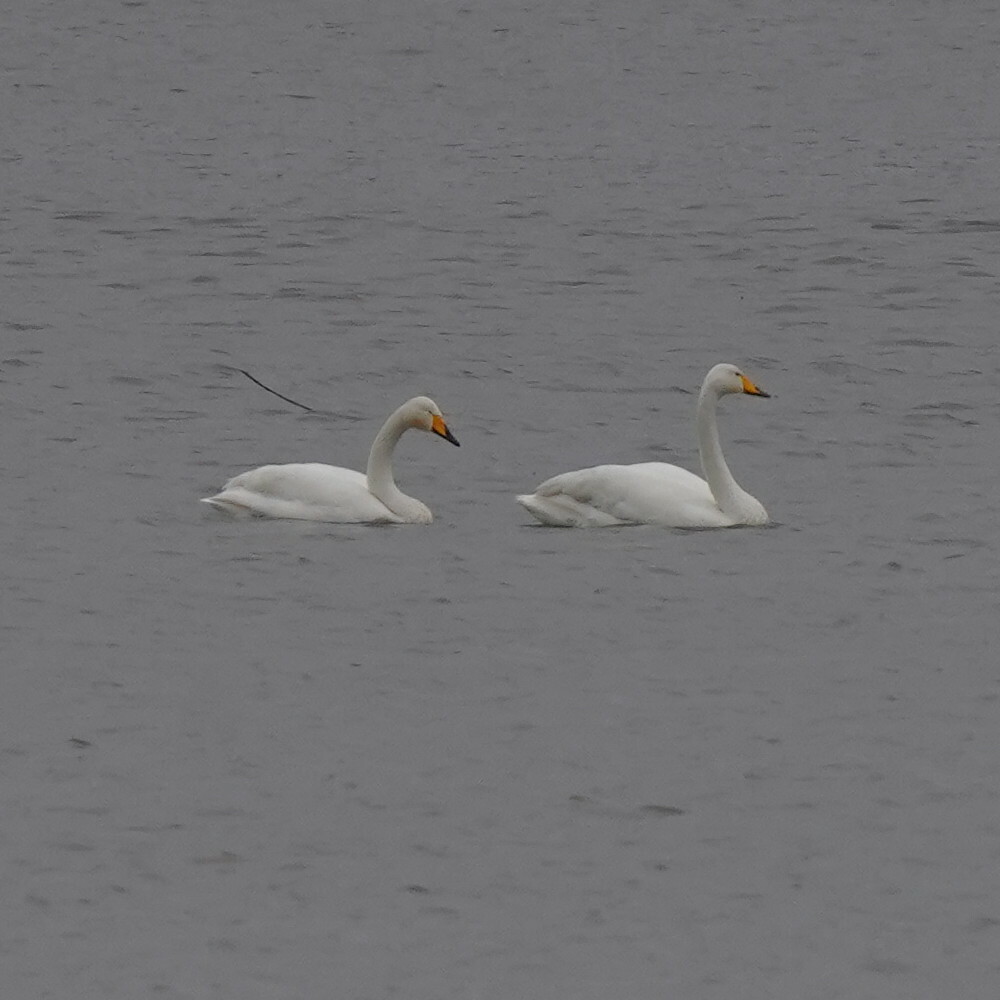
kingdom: Animalia
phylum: Chordata
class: Aves
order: Anseriformes
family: Anatidae
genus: Cygnus
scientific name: Cygnus cygnus
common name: Whooper swan
